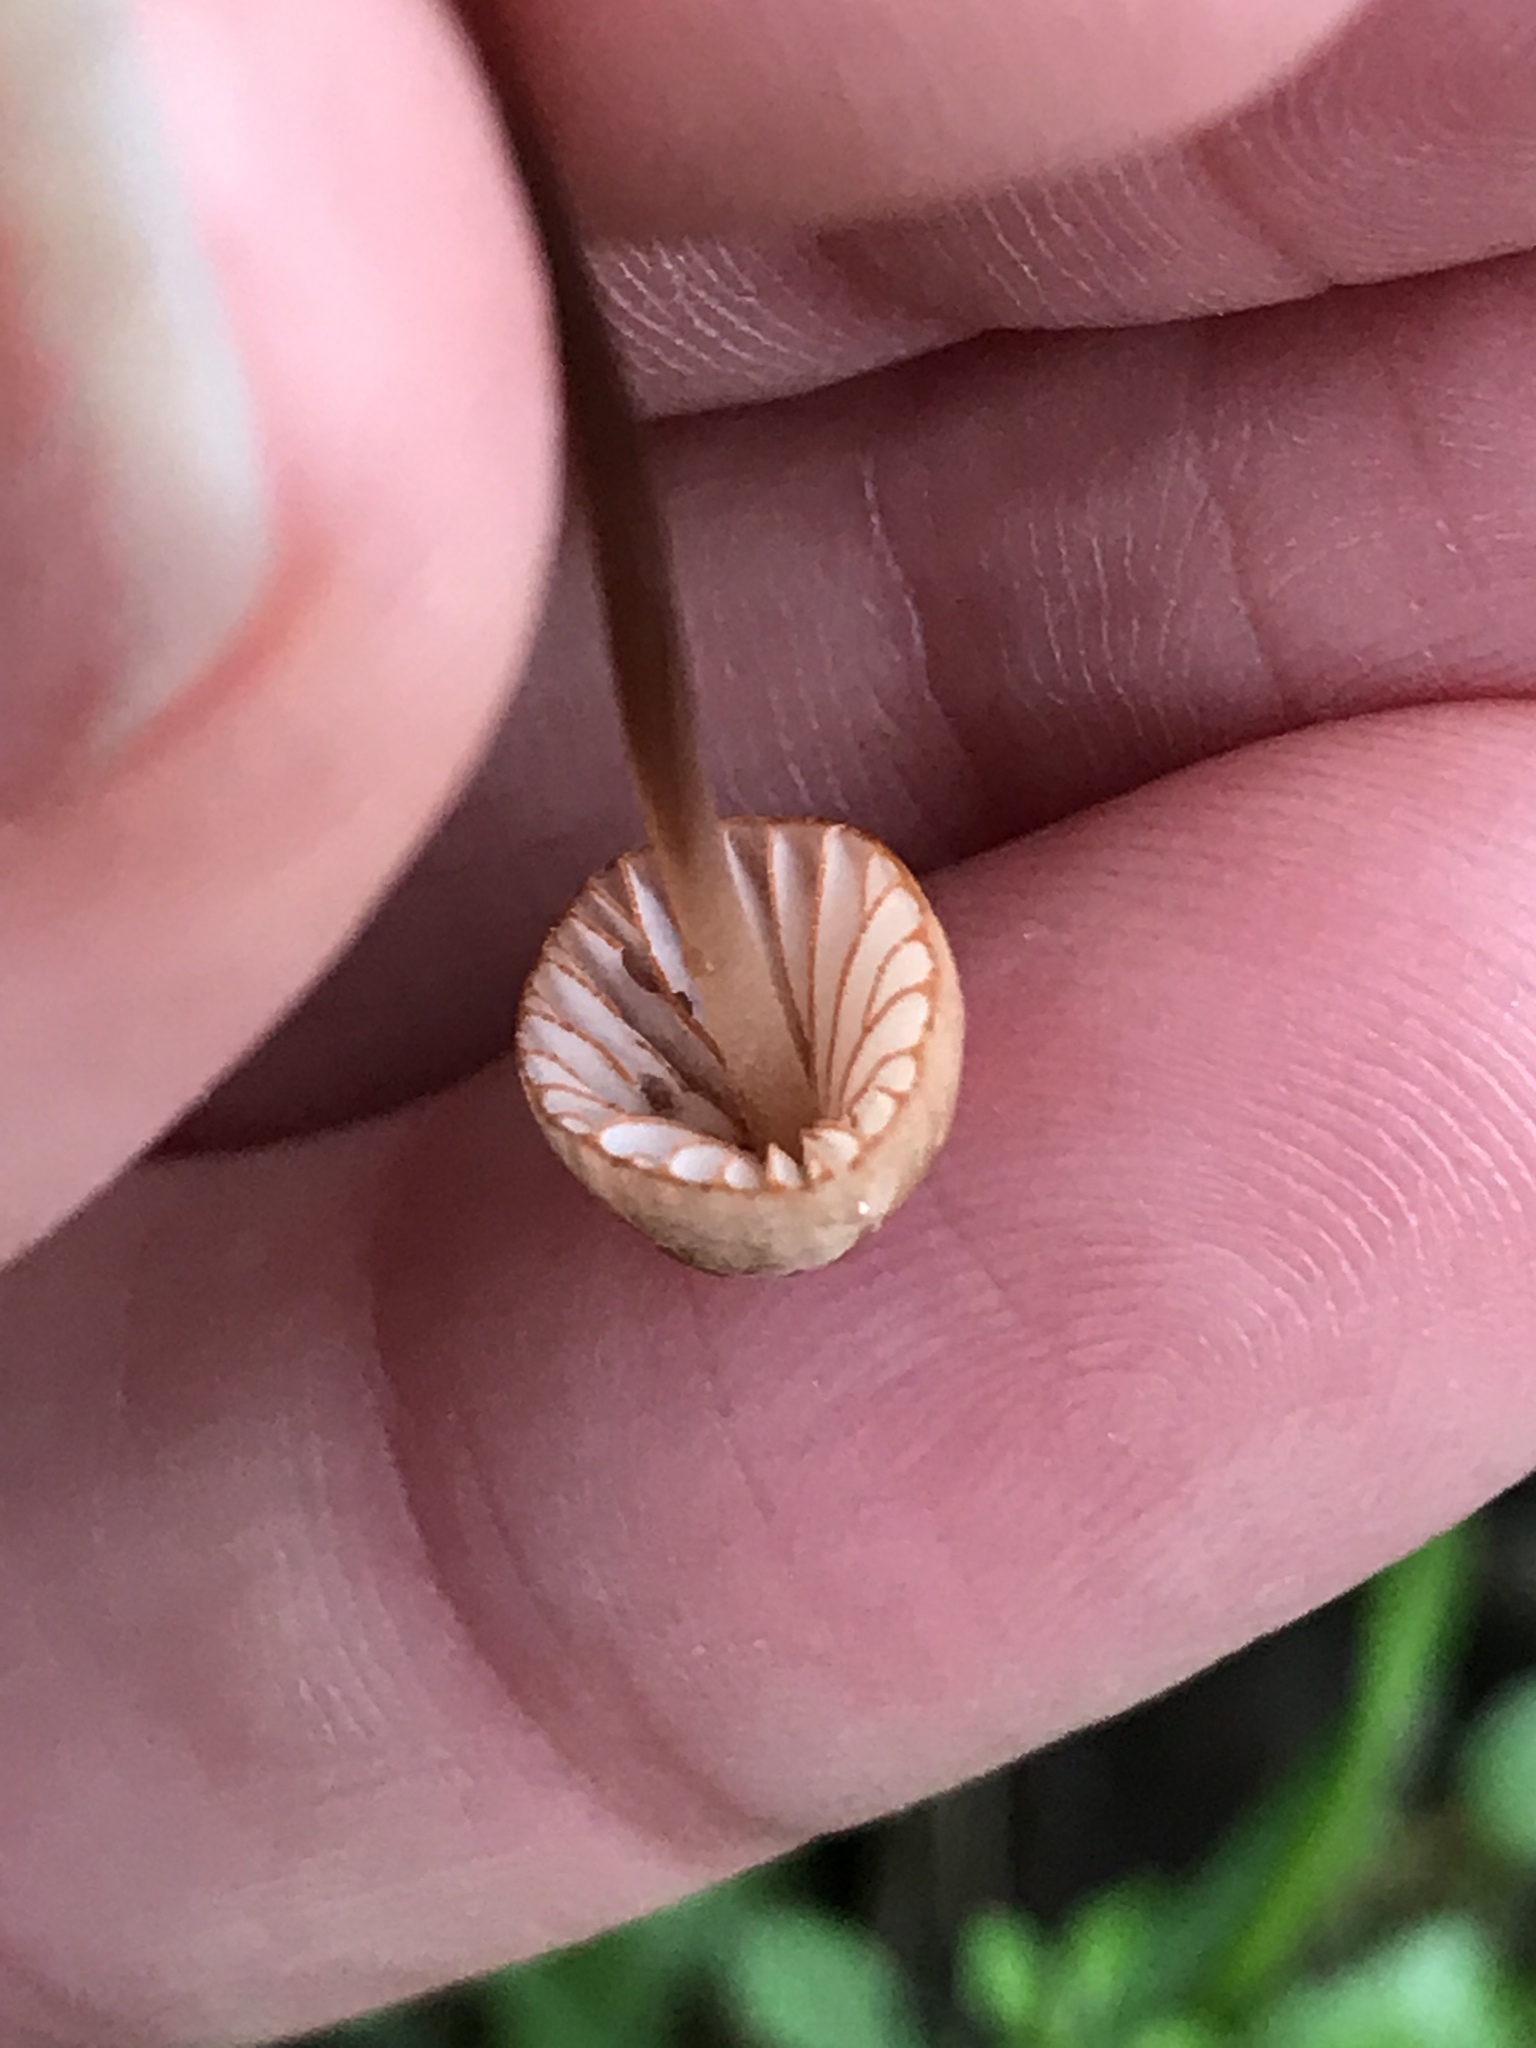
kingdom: Fungi
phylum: Basidiomycota
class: Agaricomycetes
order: Agaricales
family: Mycenaceae
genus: Mycena
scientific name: Mycena
